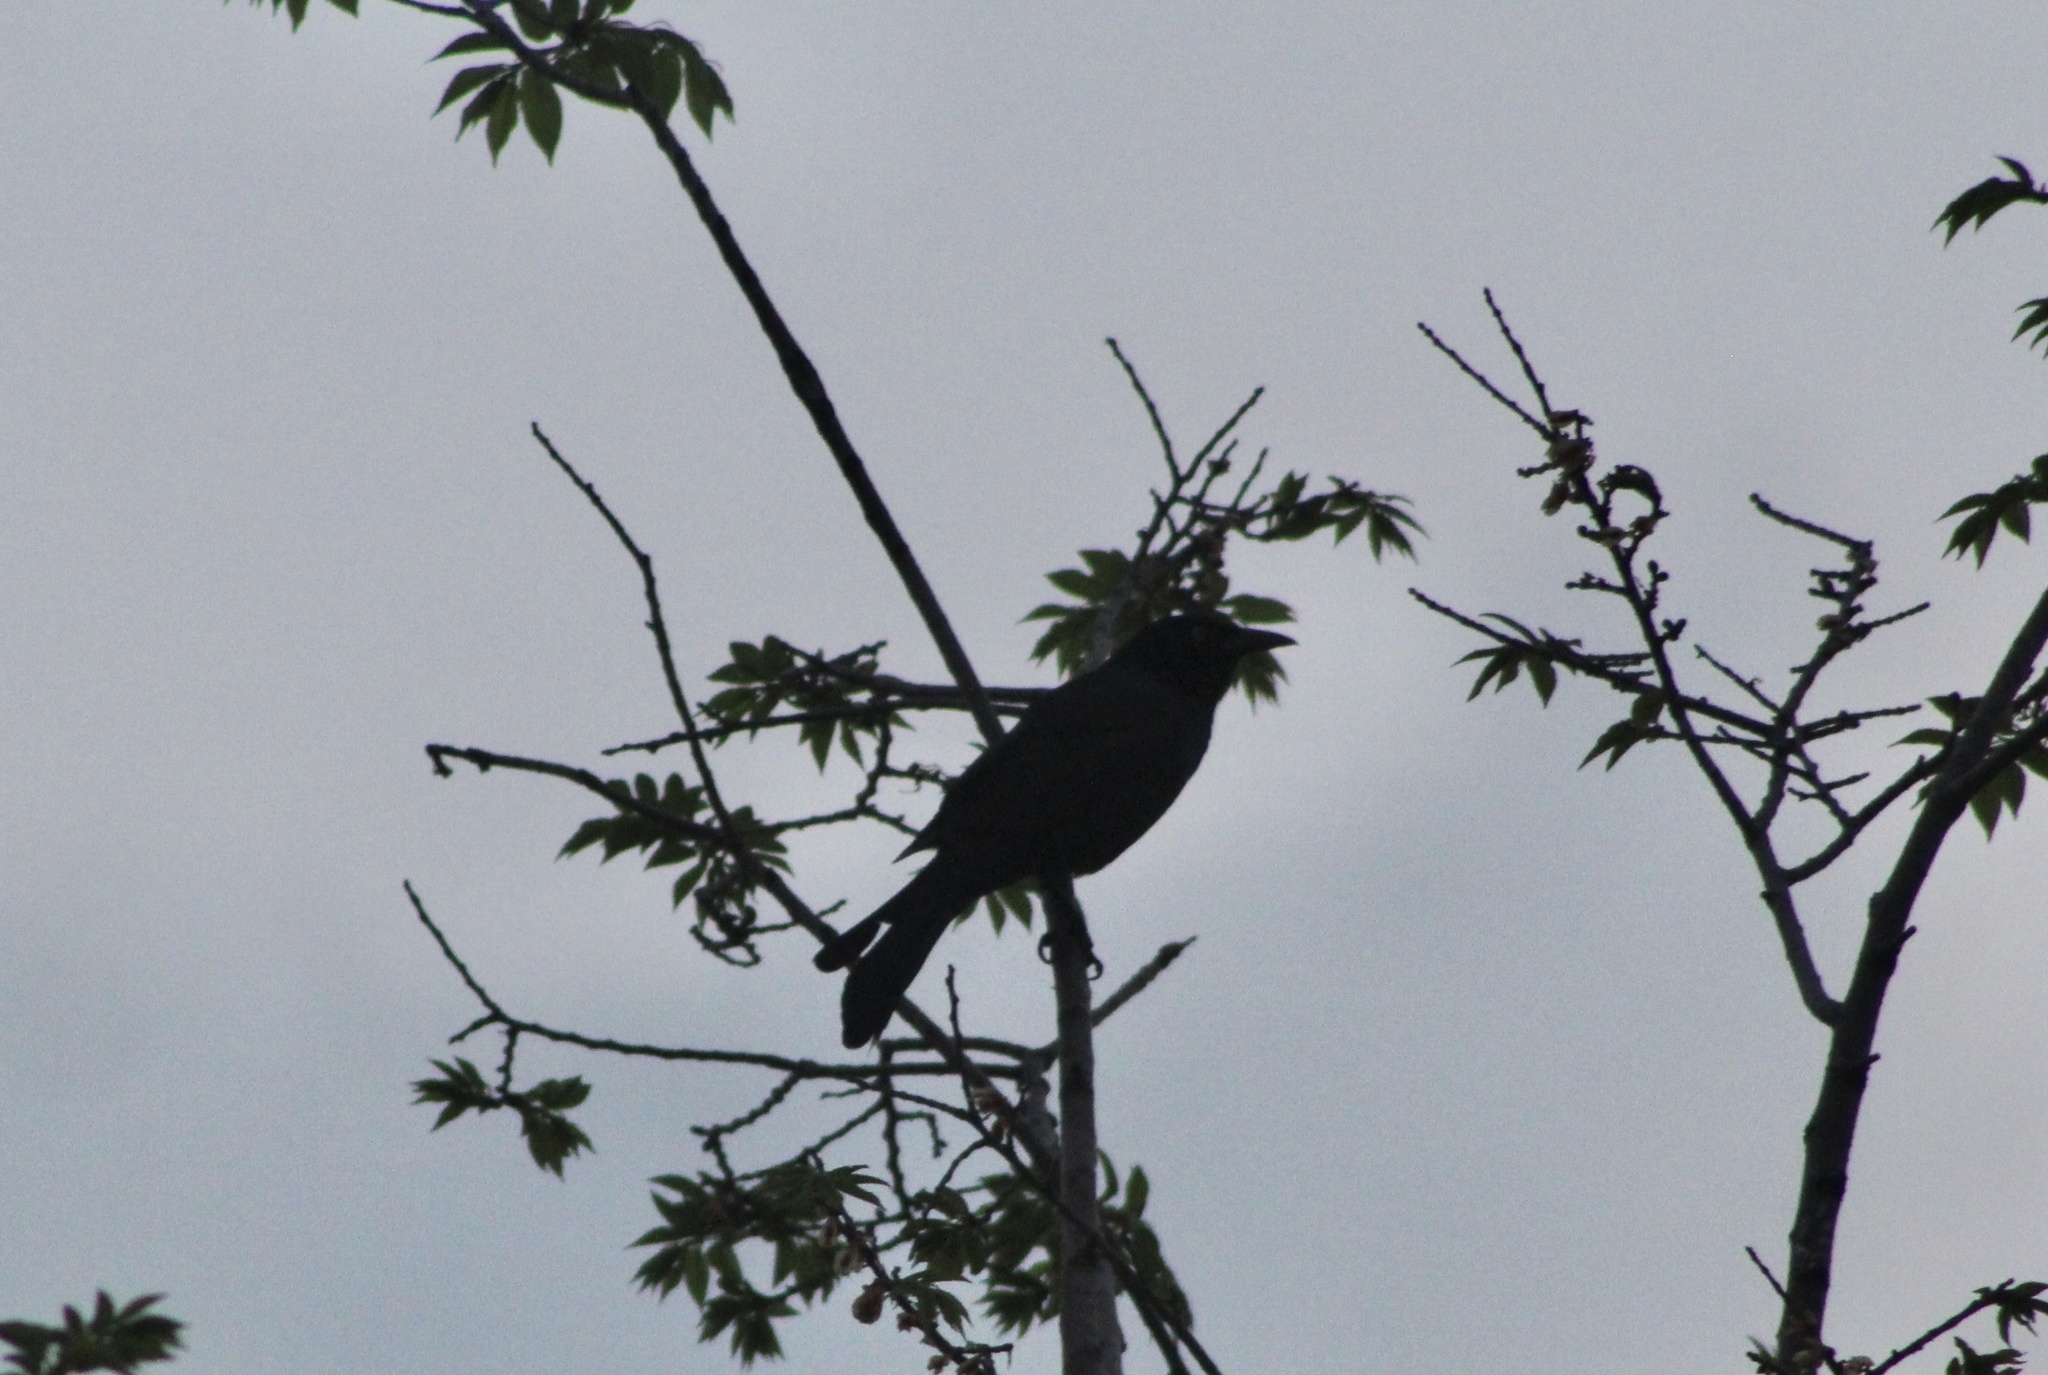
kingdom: Animalia
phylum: Chordata
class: Aves
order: Passeriformes
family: Icteridae
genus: Quiscalus
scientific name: Quiscalus quiscula
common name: Common grackle
